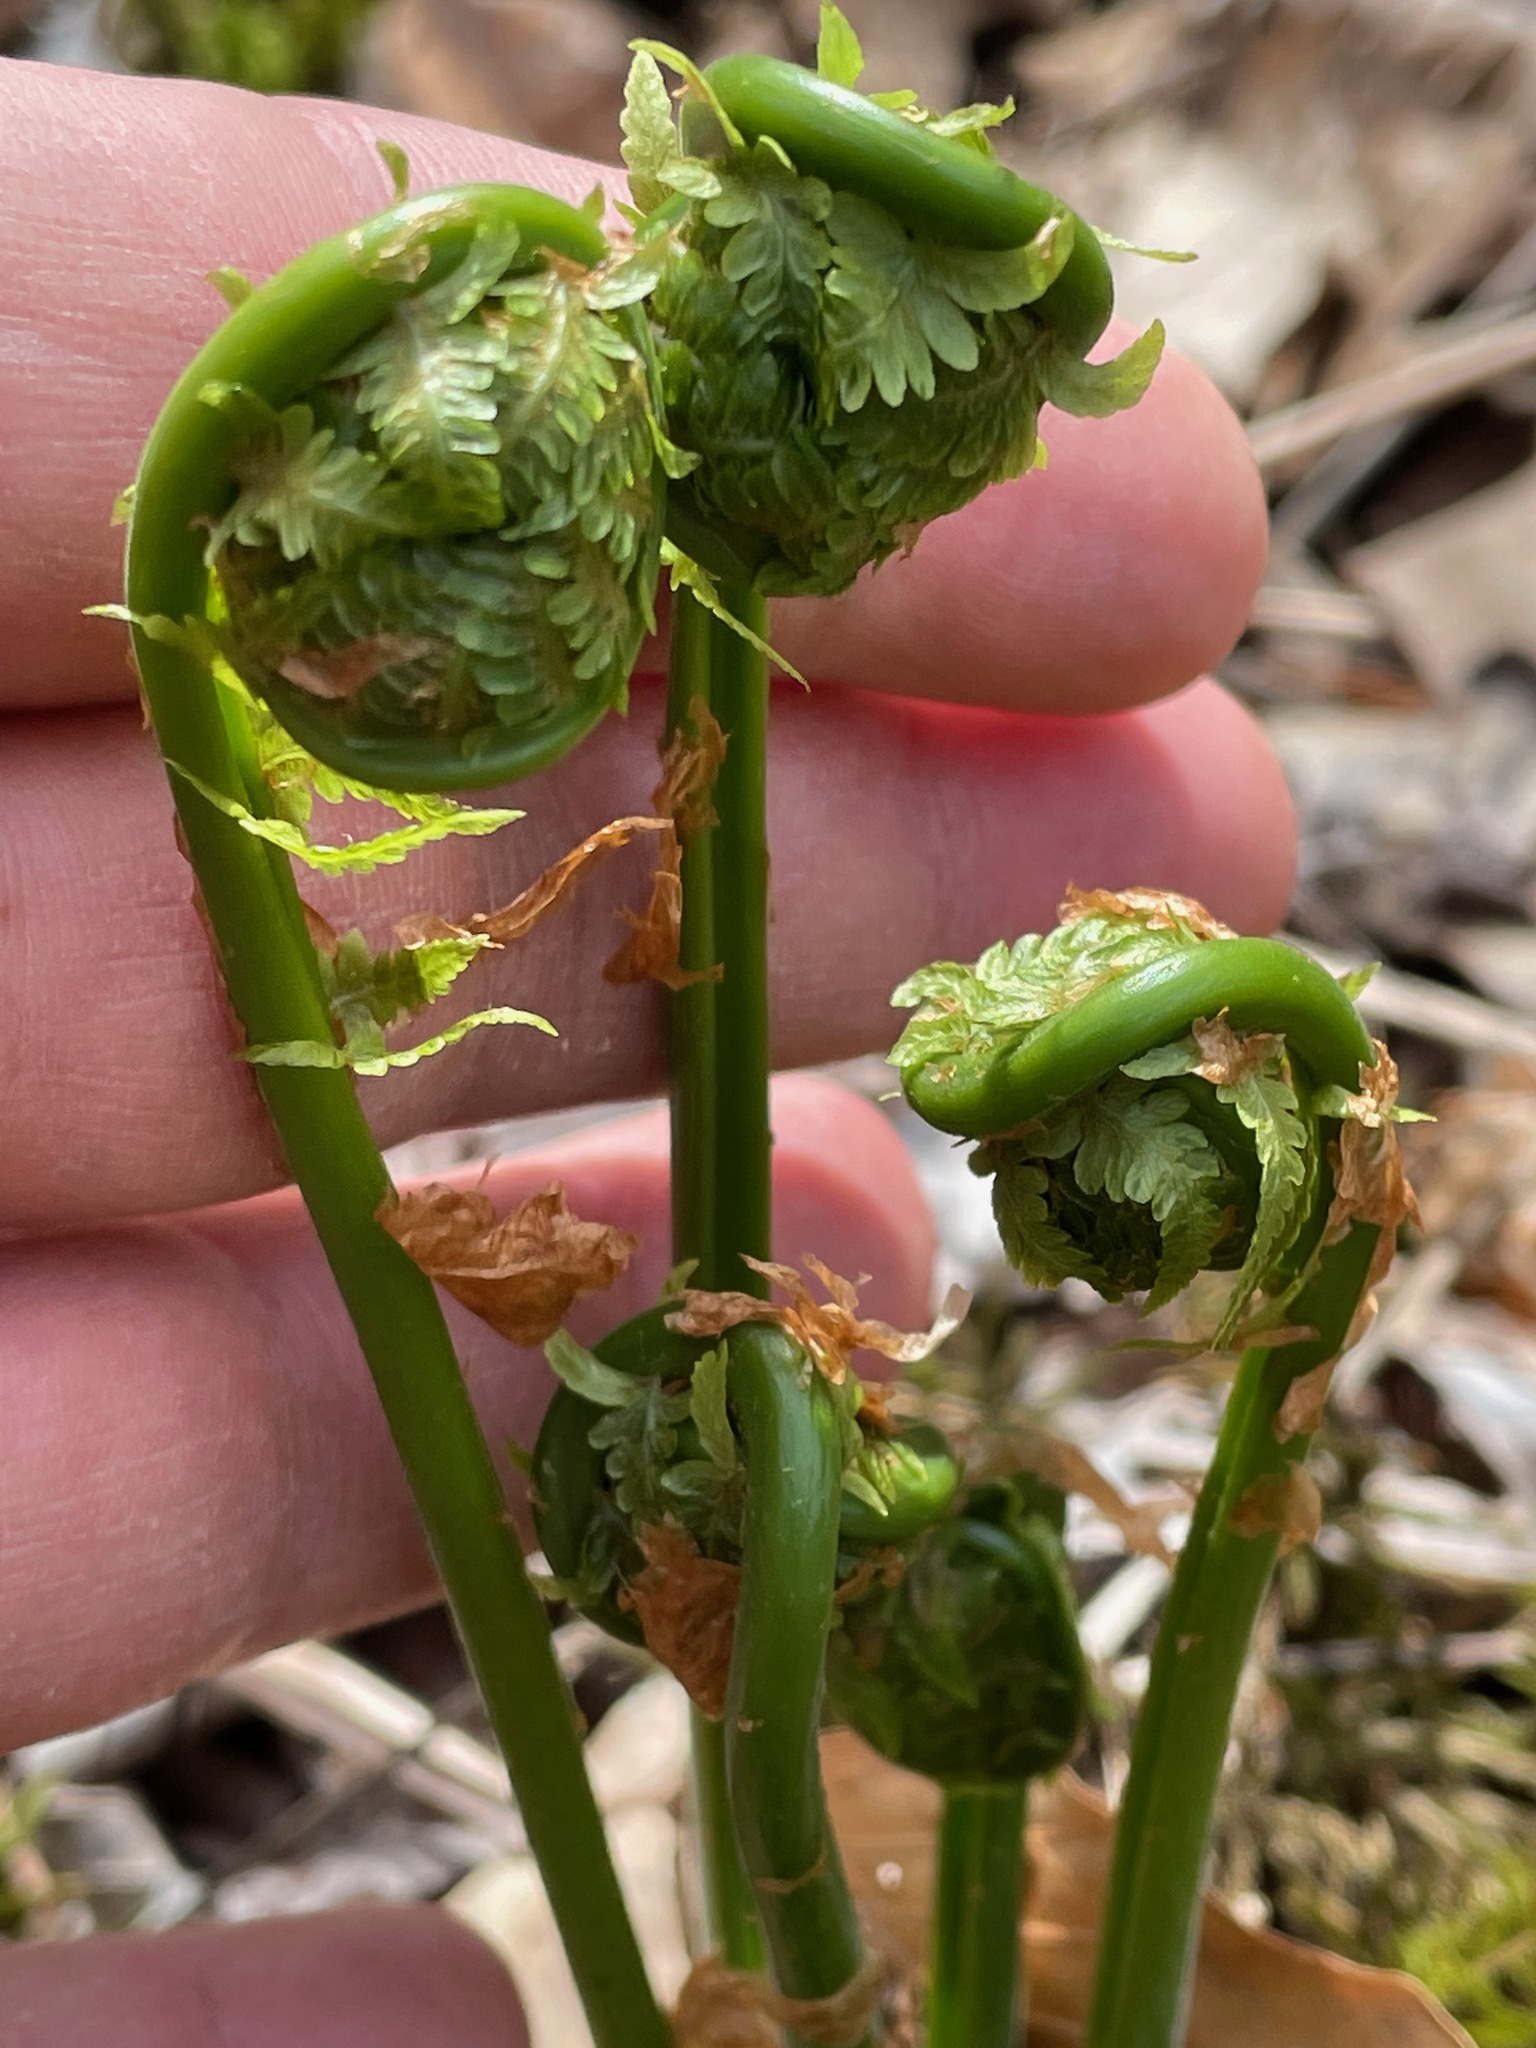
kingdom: Plantae
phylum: Tracheophyta
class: Polypodiopsida
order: Polypodiales
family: Onocleaceae
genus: Matteuccia
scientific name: Matteuccia struthiopteris
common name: Ostrich fern
